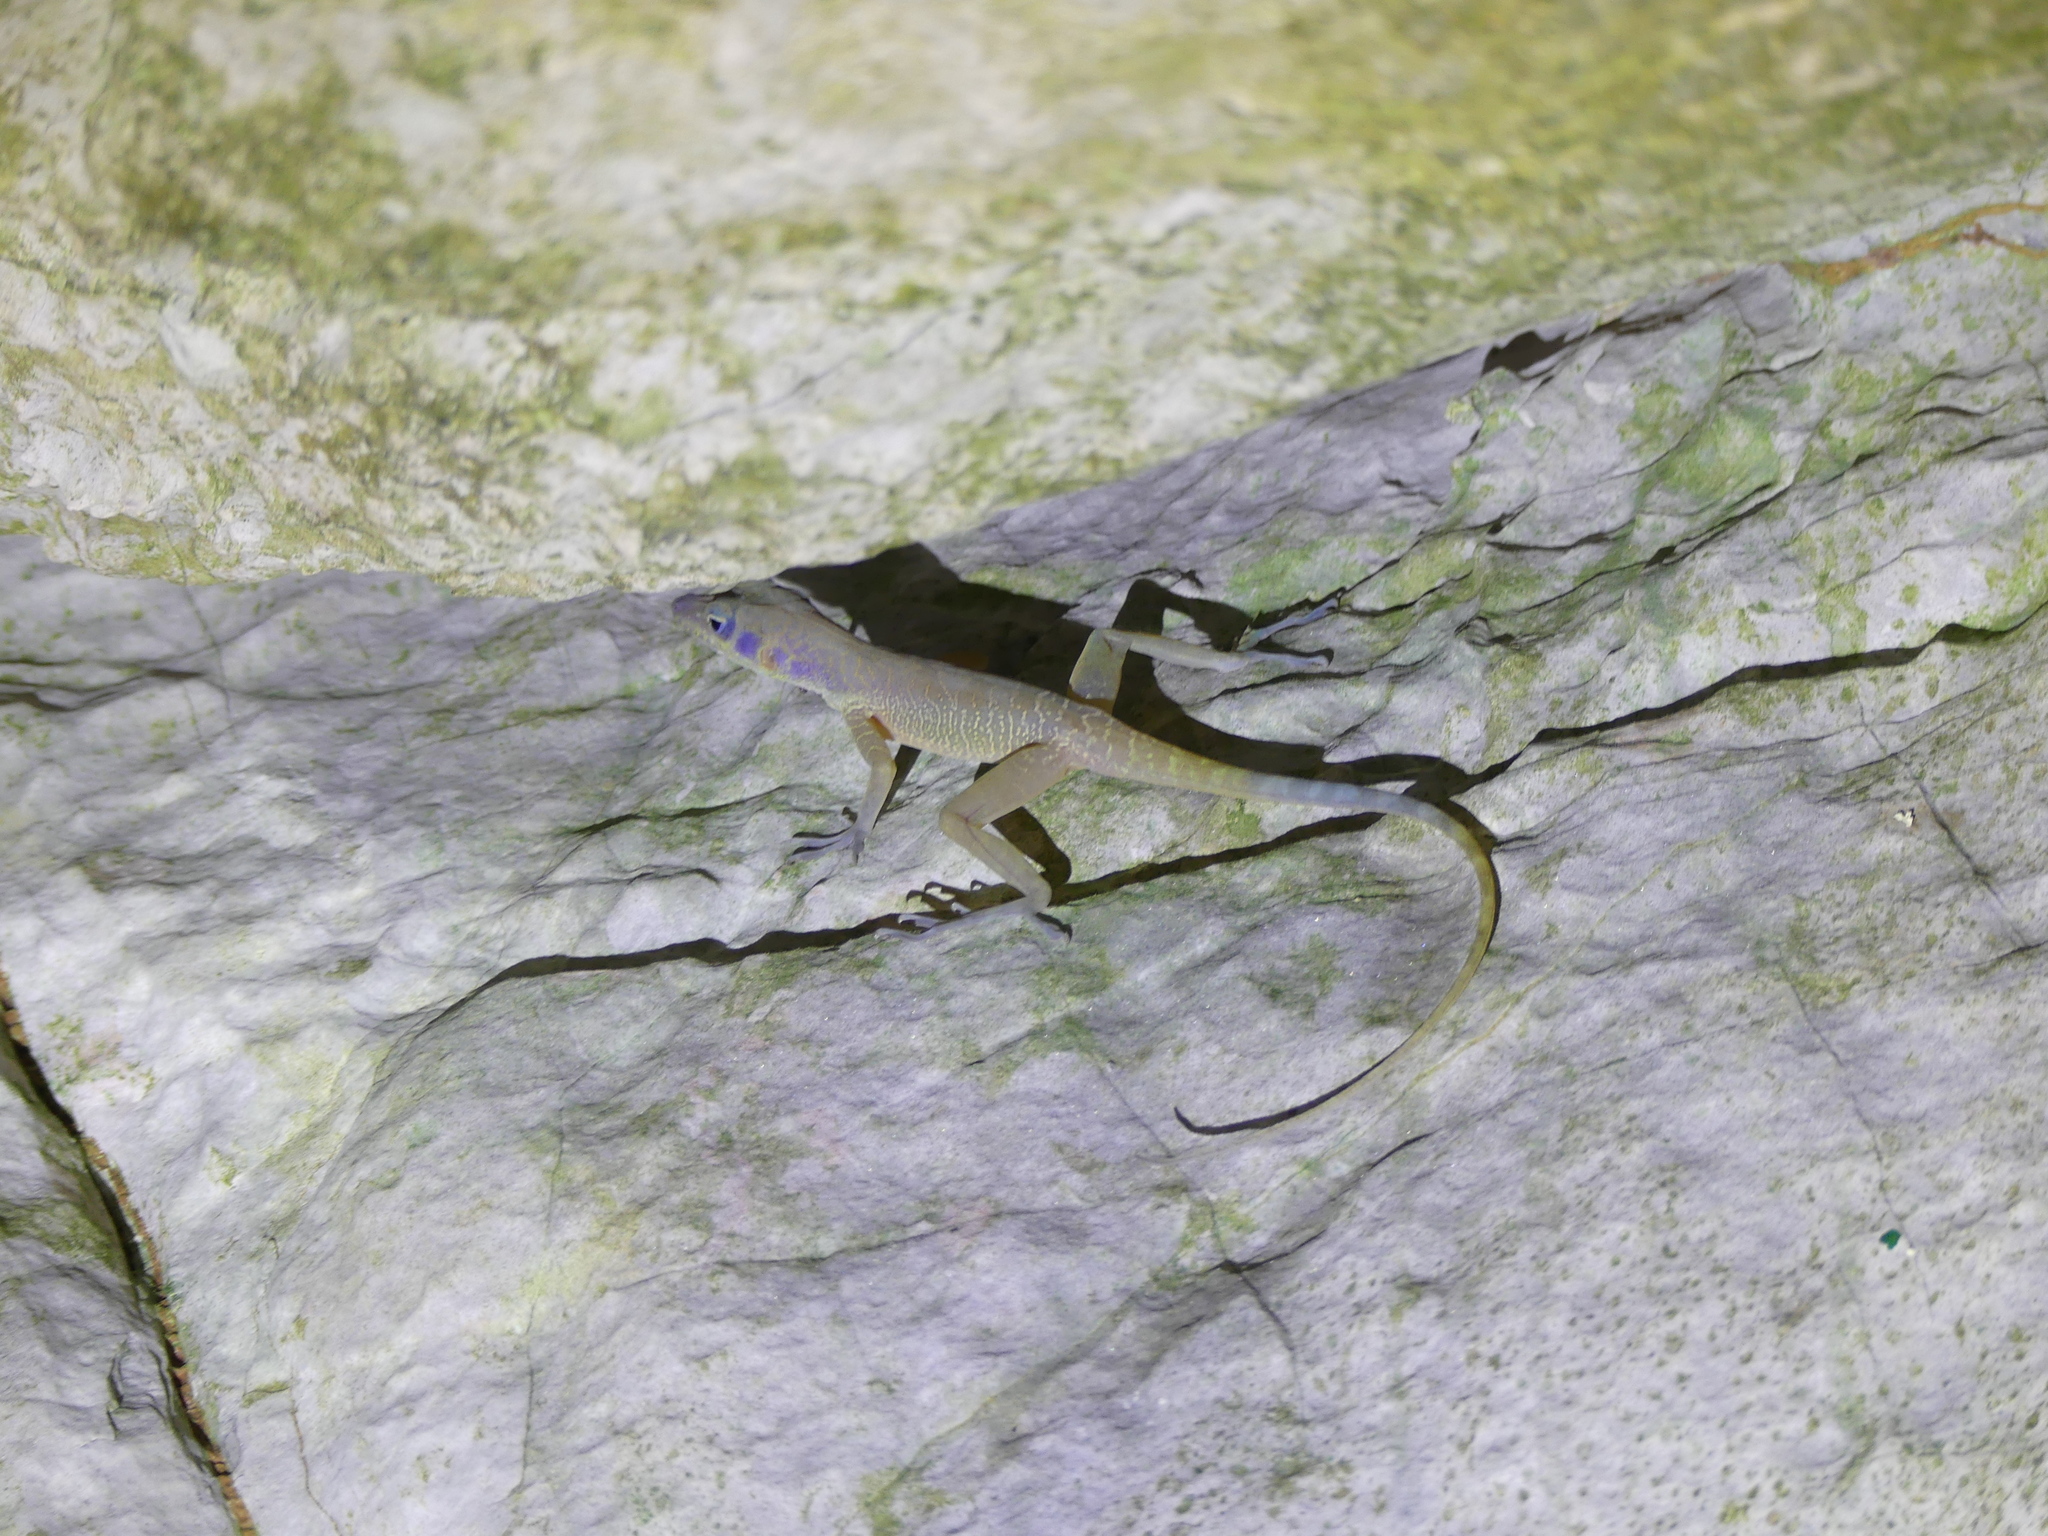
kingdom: Animalia
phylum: Chordata
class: Squamata
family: Dactyloidae
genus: Anolis
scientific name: Anolis bartschi
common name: West cuban anole
